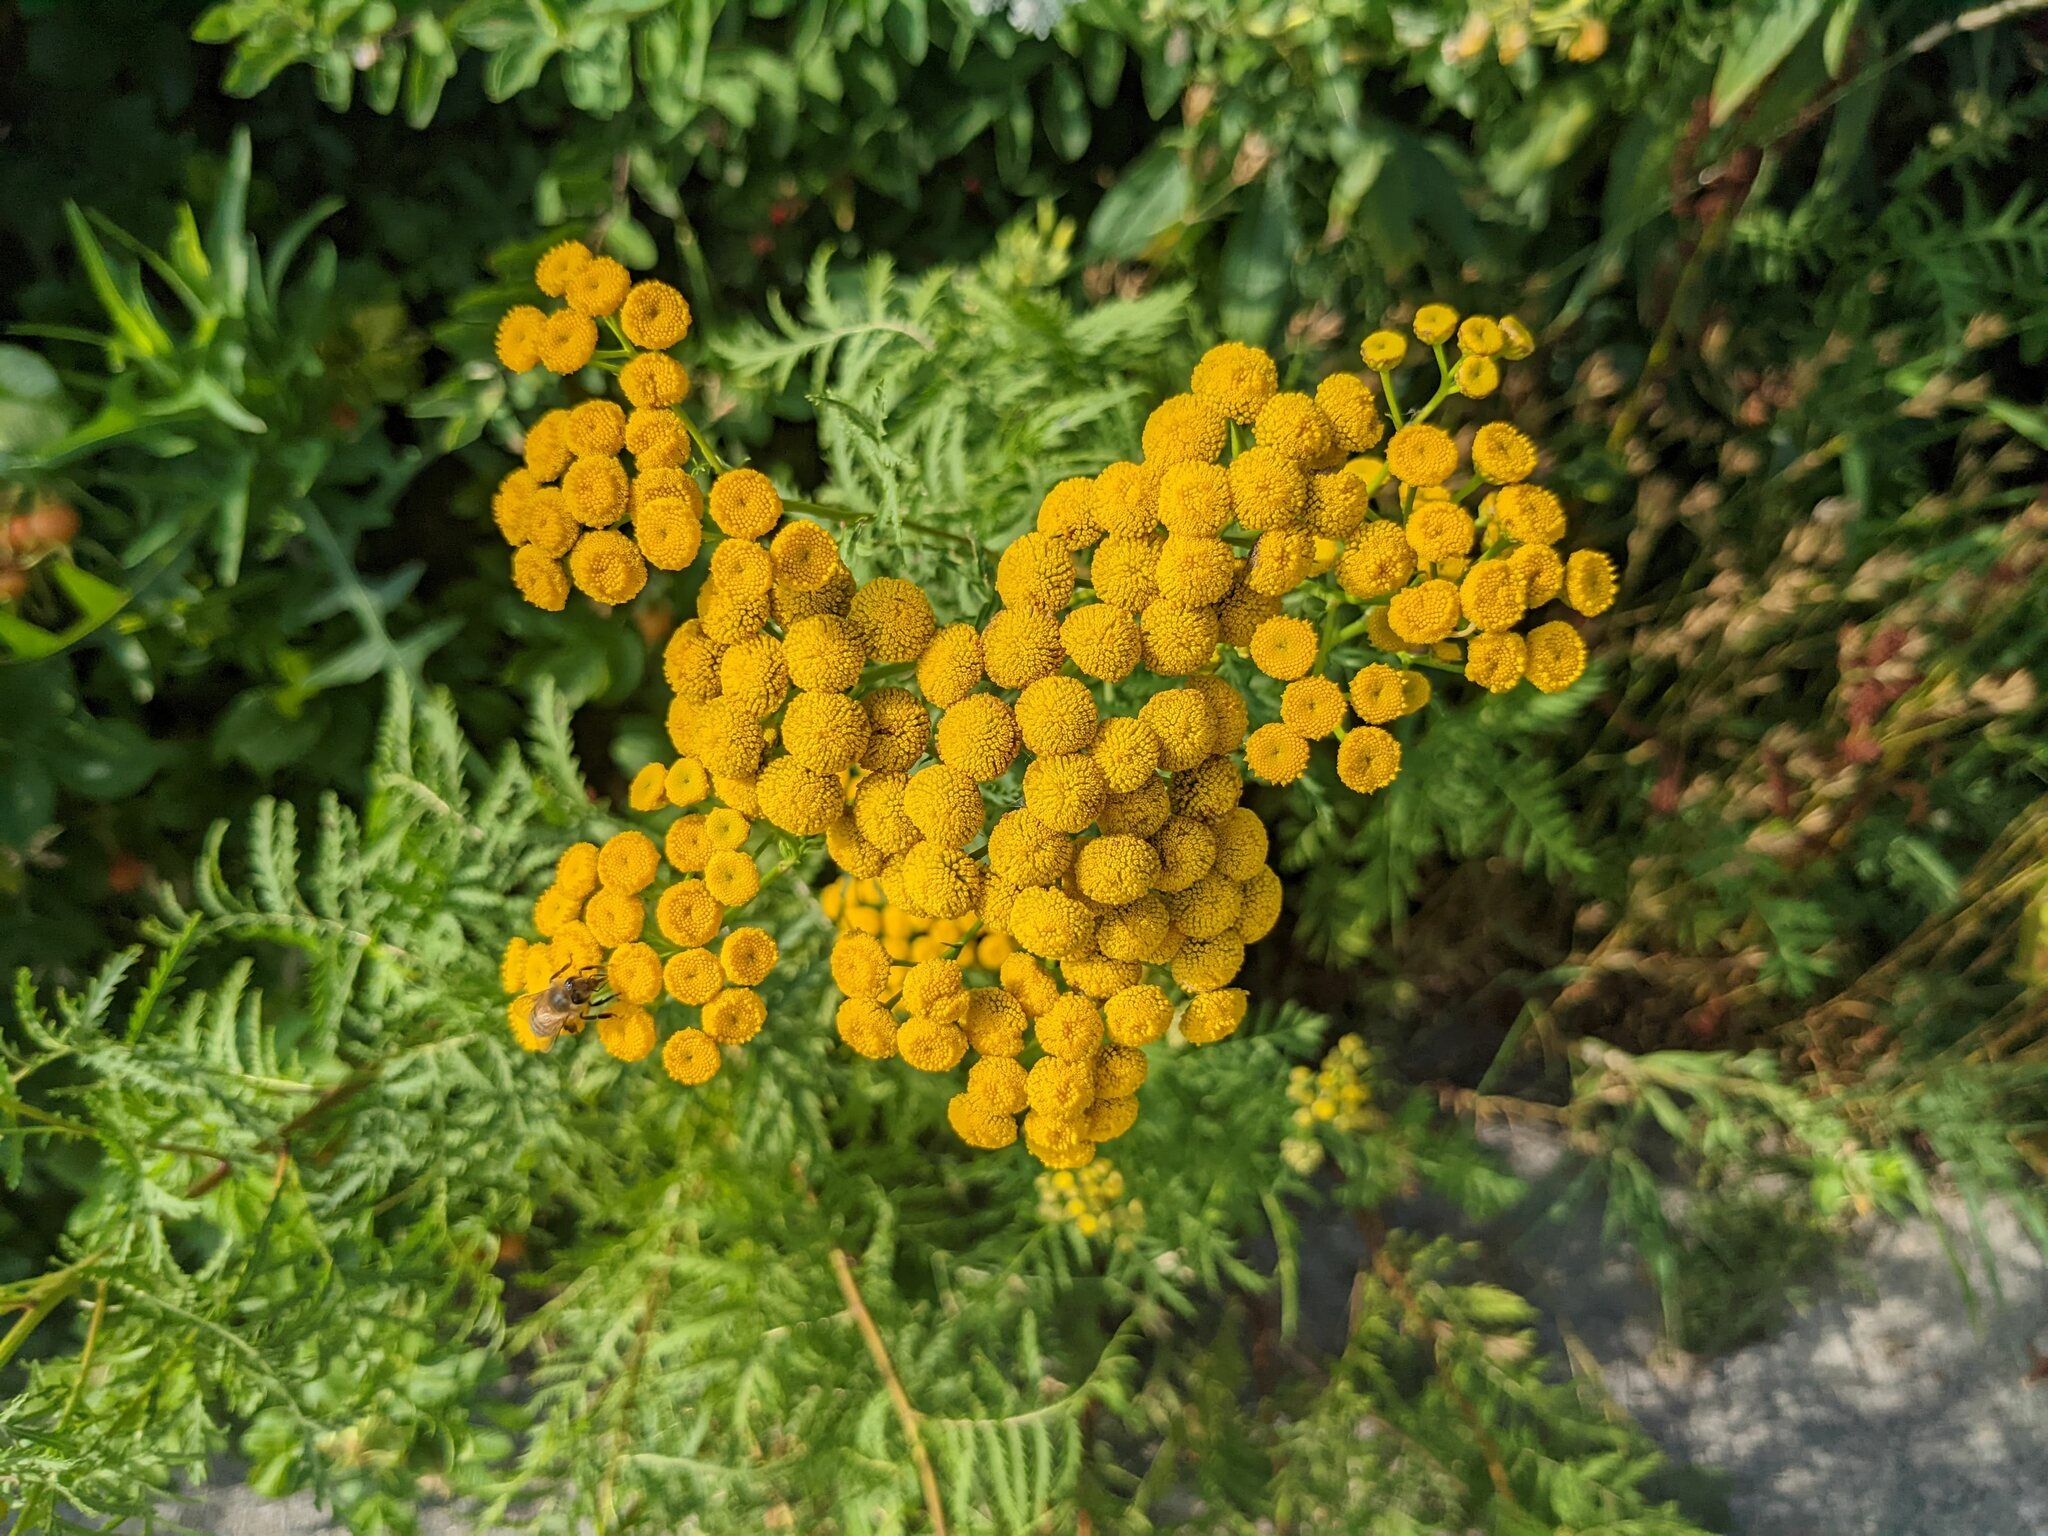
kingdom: Plantae
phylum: Tracheophyta
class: Magnoliopsida
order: Asterales
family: Asteraceae
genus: Tanacetum
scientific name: Tanacetum vulgare
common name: Common tansy
